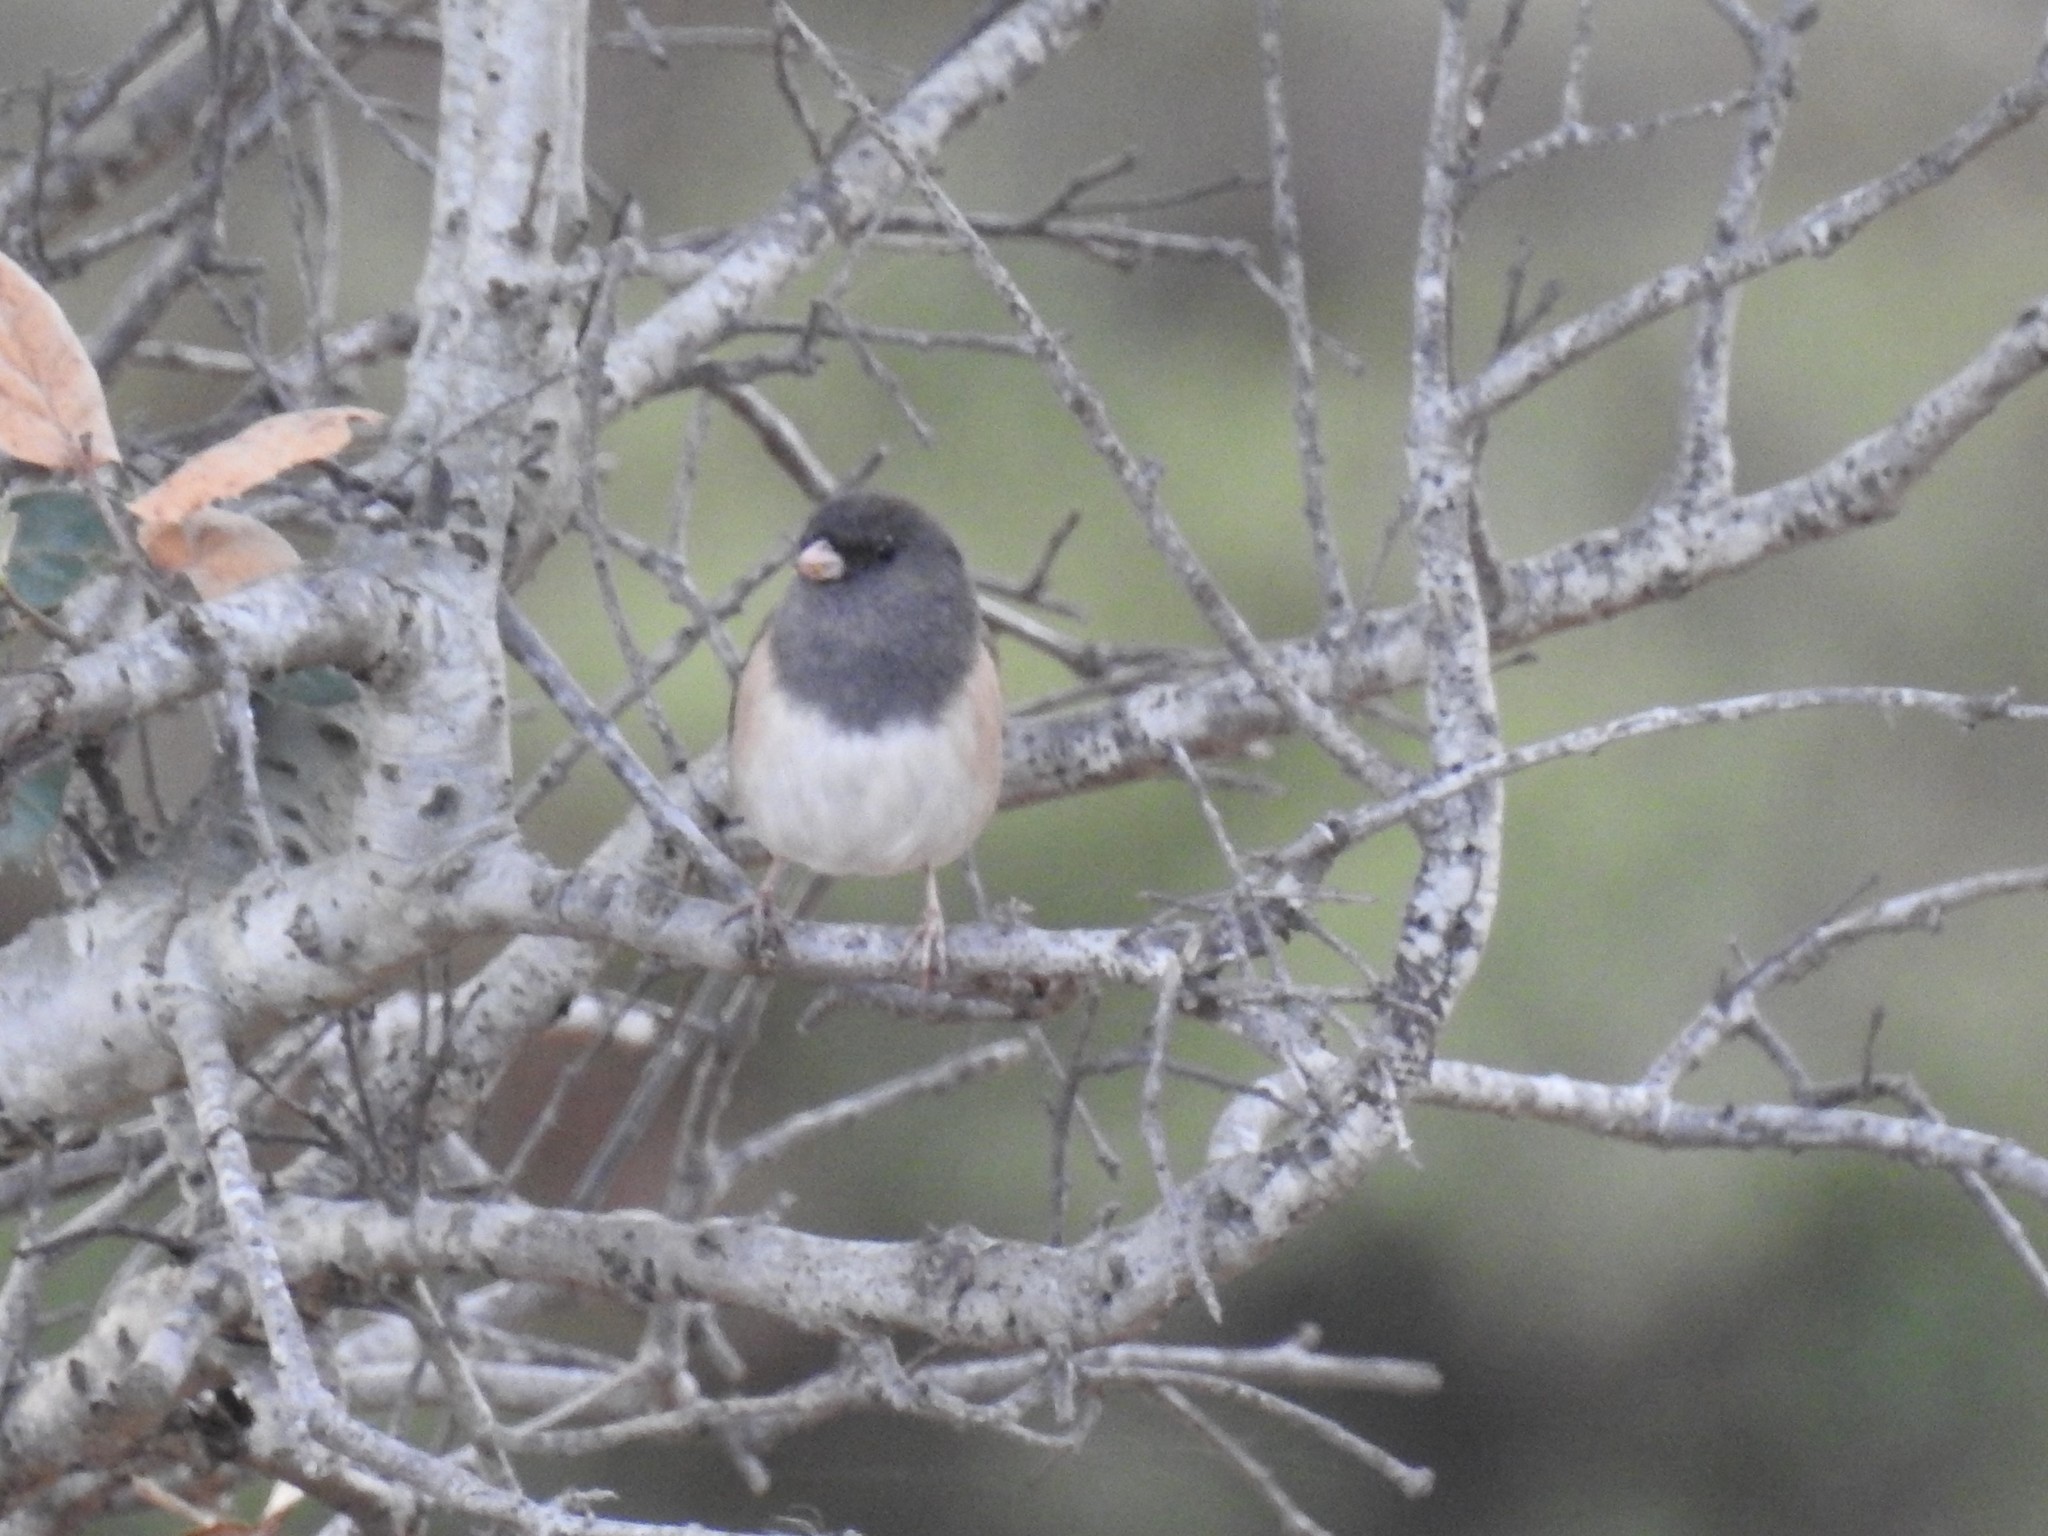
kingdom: Animalia
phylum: Chordata
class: Aves
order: Passeriformes
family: Passerellidae
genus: Junco
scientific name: Junco hyemalis
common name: Dark-eyed junco
